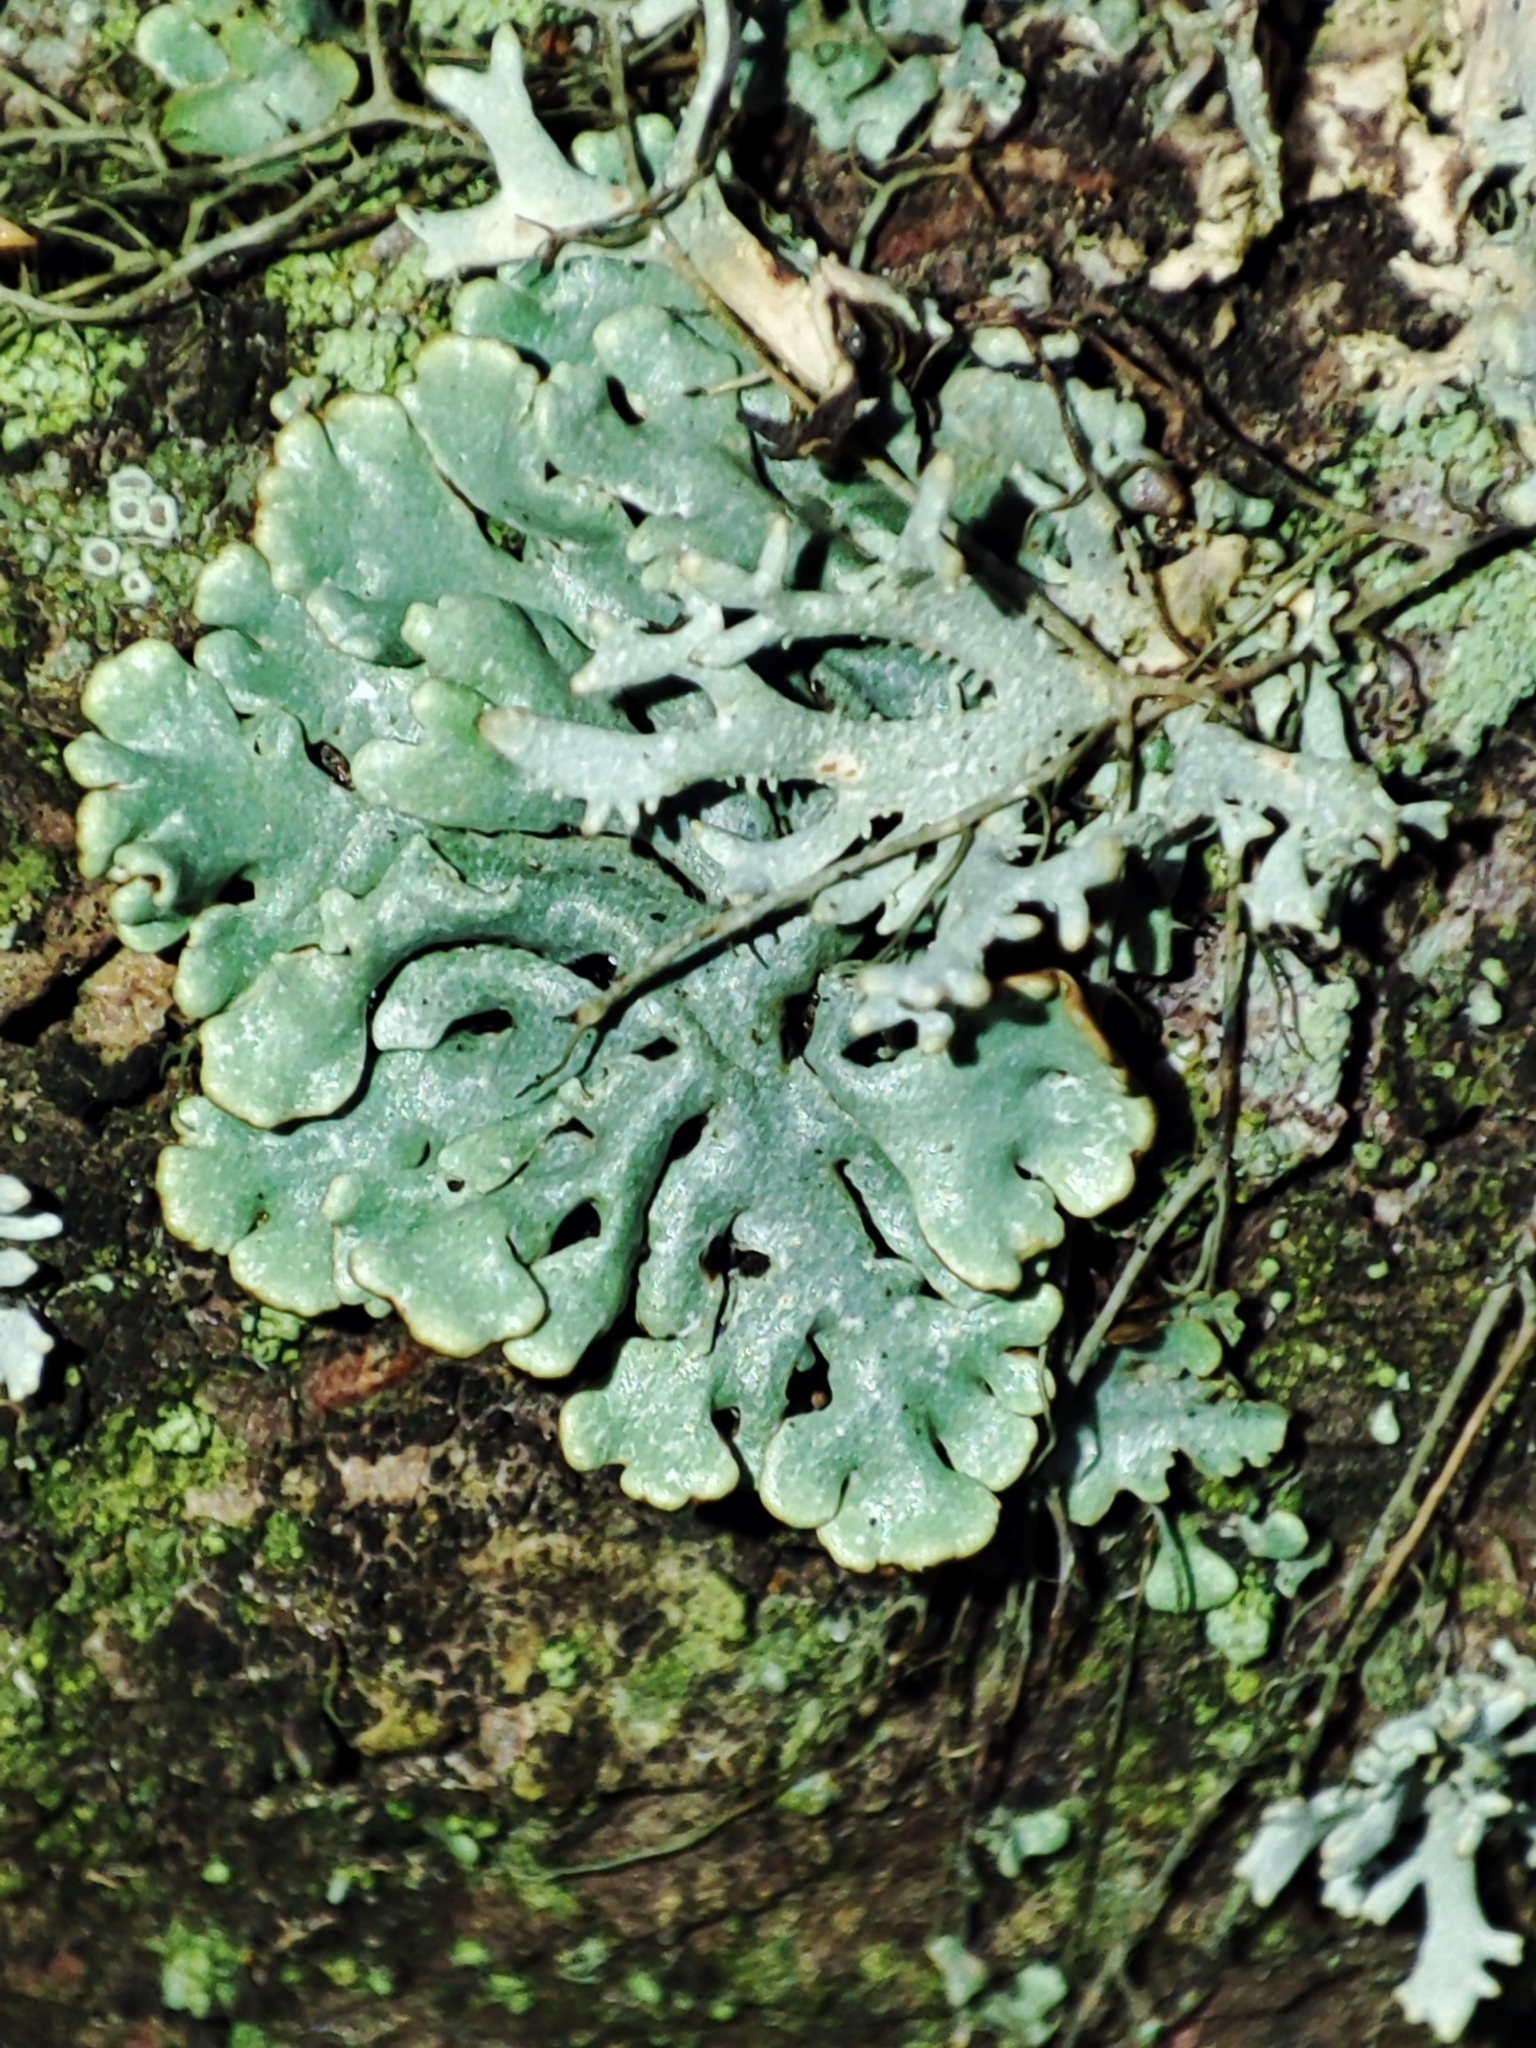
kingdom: Fungi
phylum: Ascomycota
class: Lecanoromycetes
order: Lecanorales
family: Parmeliaceae
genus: Hypogymnia
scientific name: Hypogymnia physodes
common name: Dark crottle
